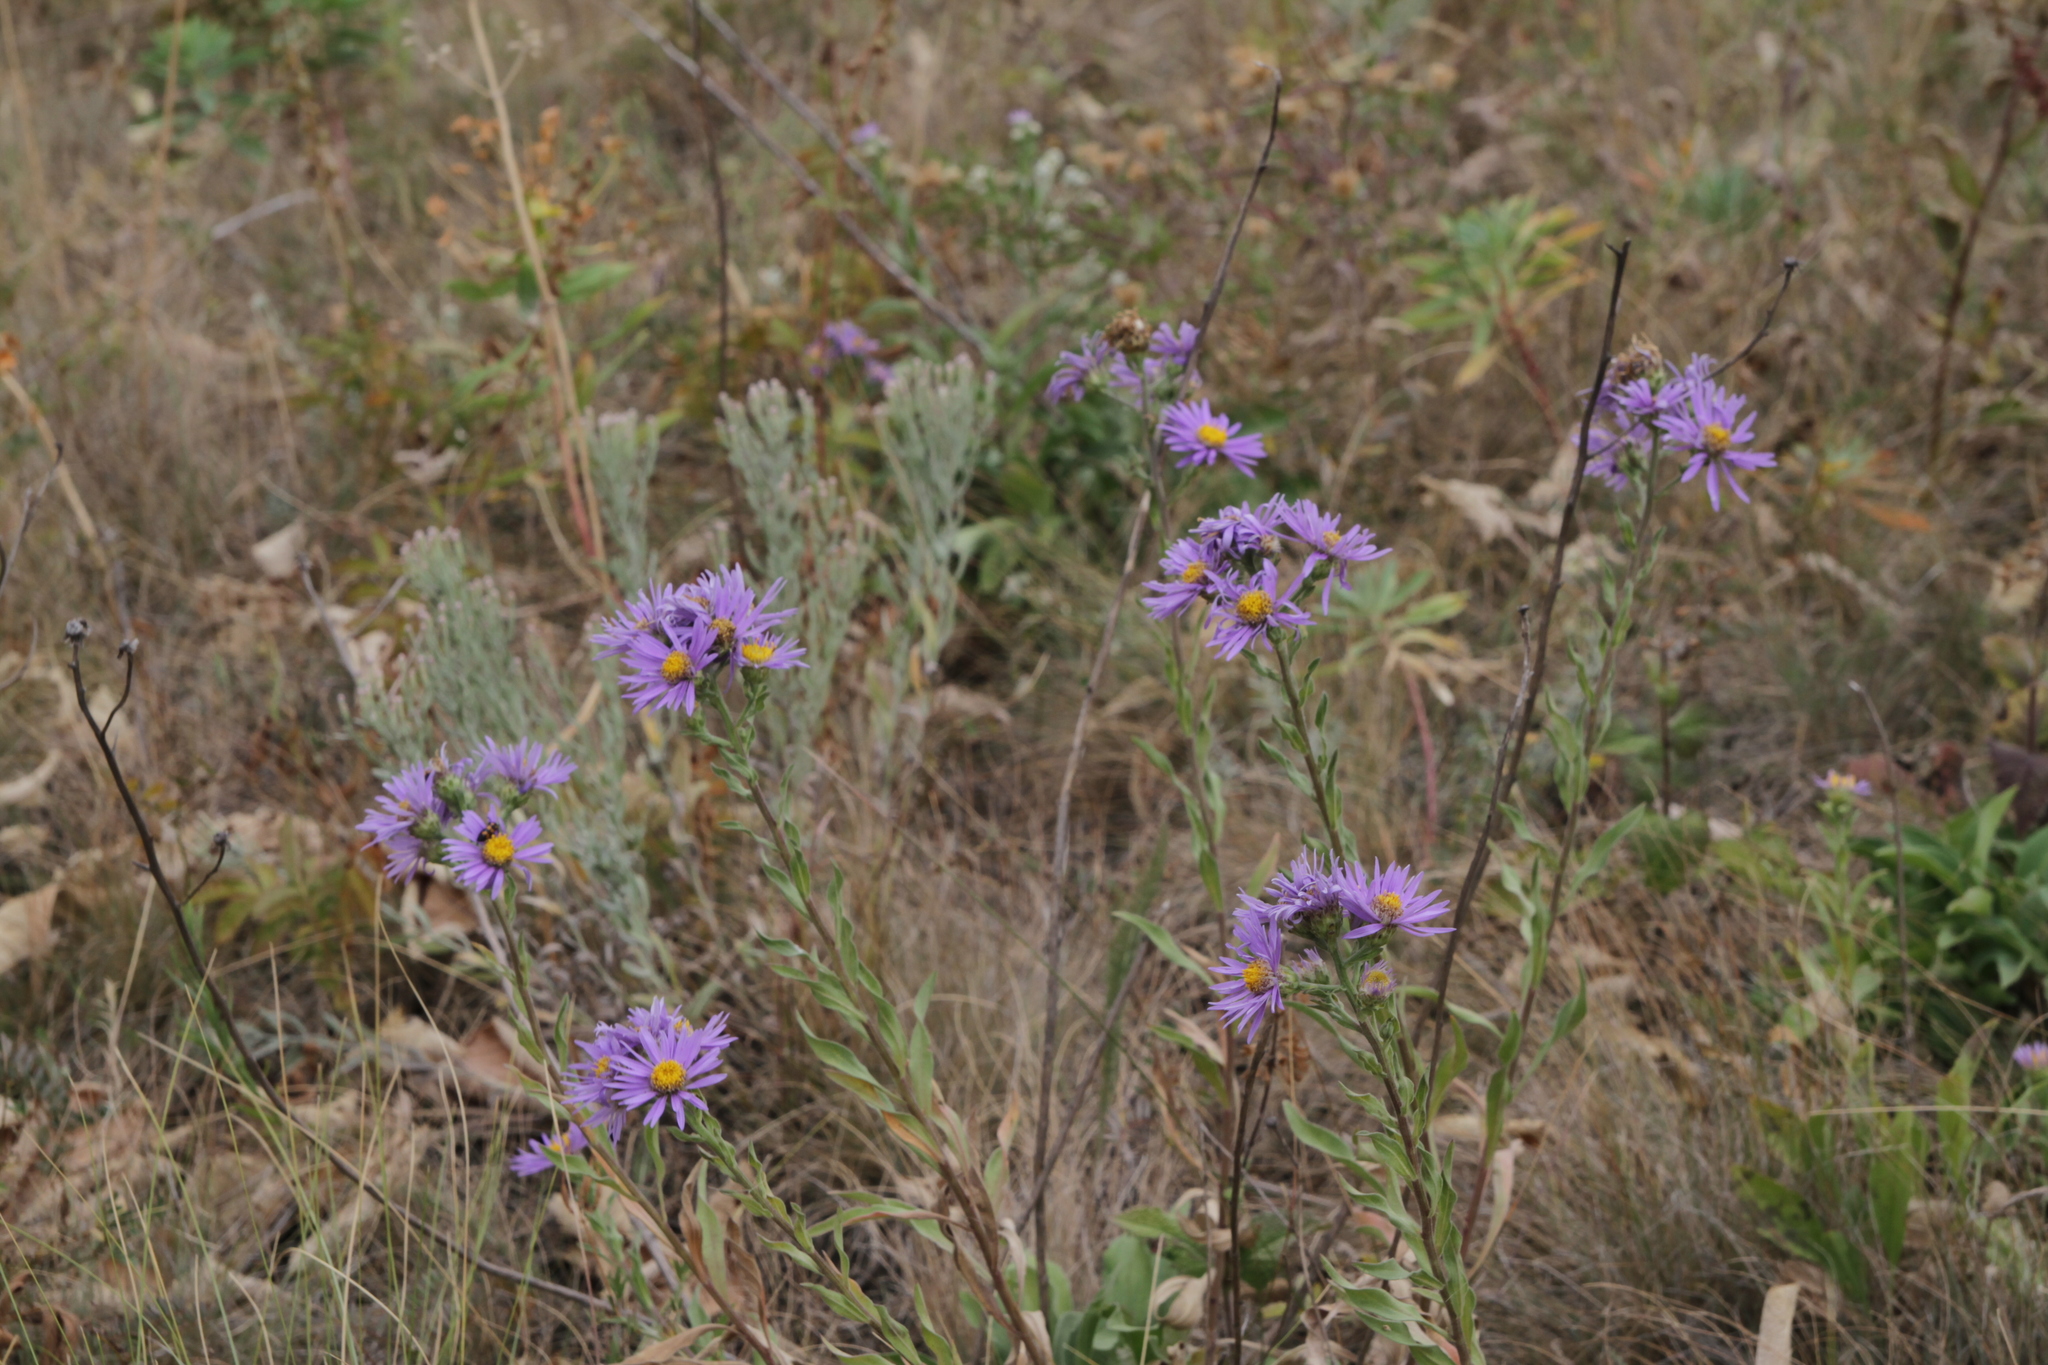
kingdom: Plantae
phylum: Tracheophyta
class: Magnoliopsida
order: Asterales
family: Asteraceae
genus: Aster
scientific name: Aster amellus
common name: European michaelmas daisy
